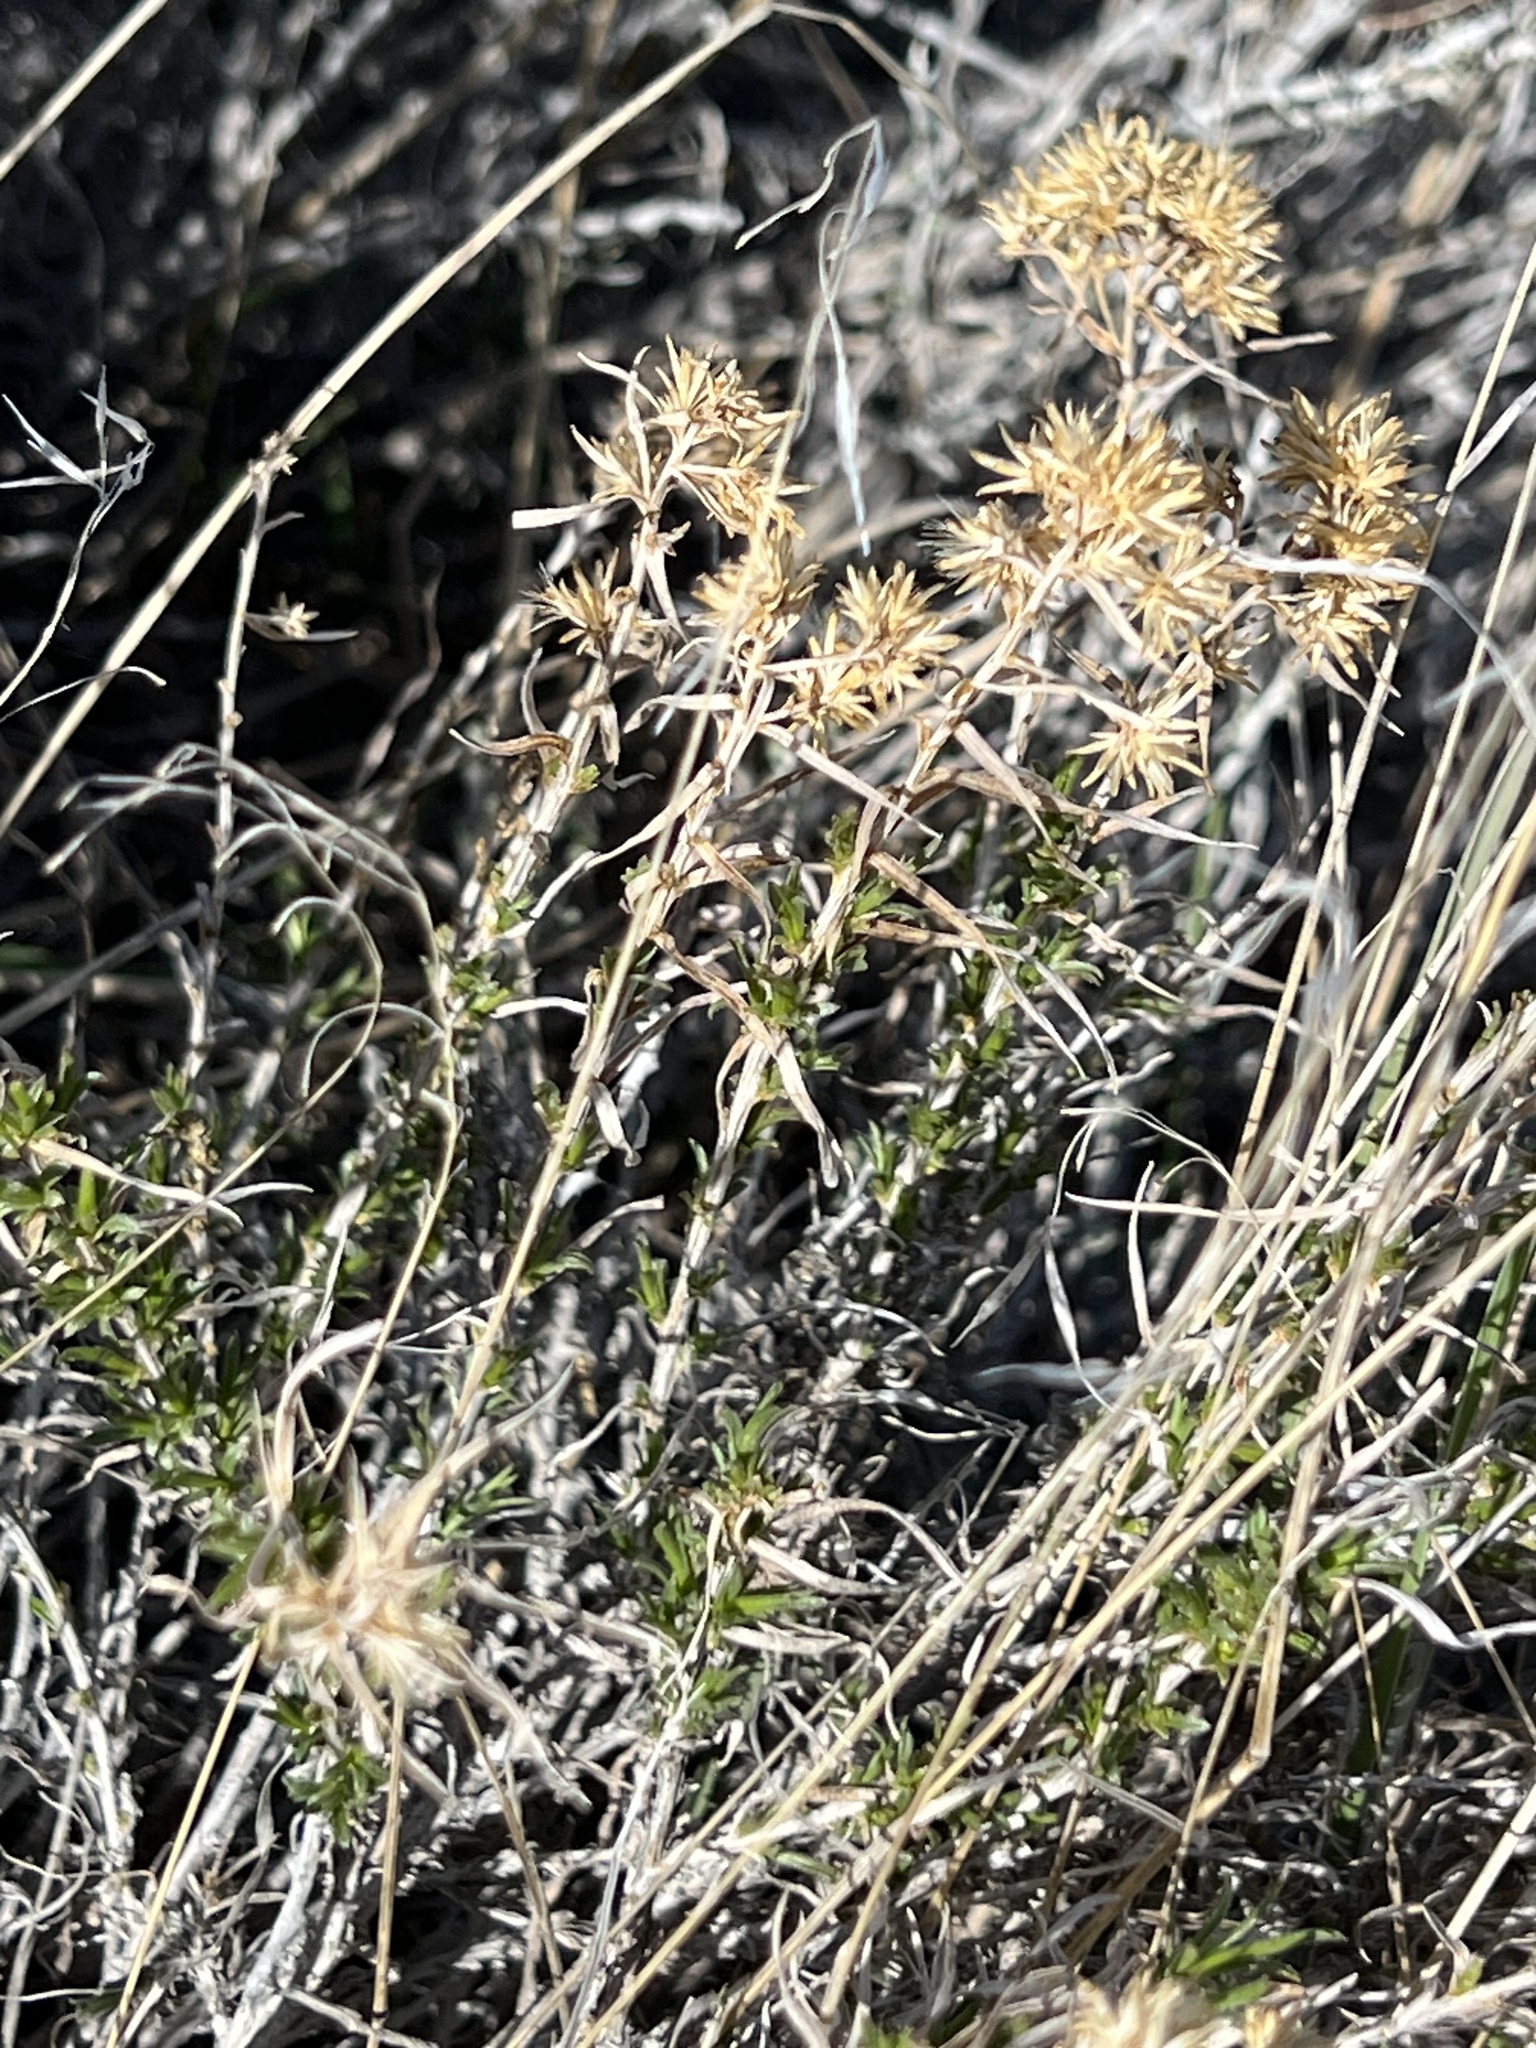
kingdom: Plantae
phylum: Tracheophyta
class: Magnoliopsida
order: Asterales
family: Asteraceae
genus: Chrysothamnus
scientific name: Chrysothamnus viscidiflorus
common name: Yellow rabbitbrush
